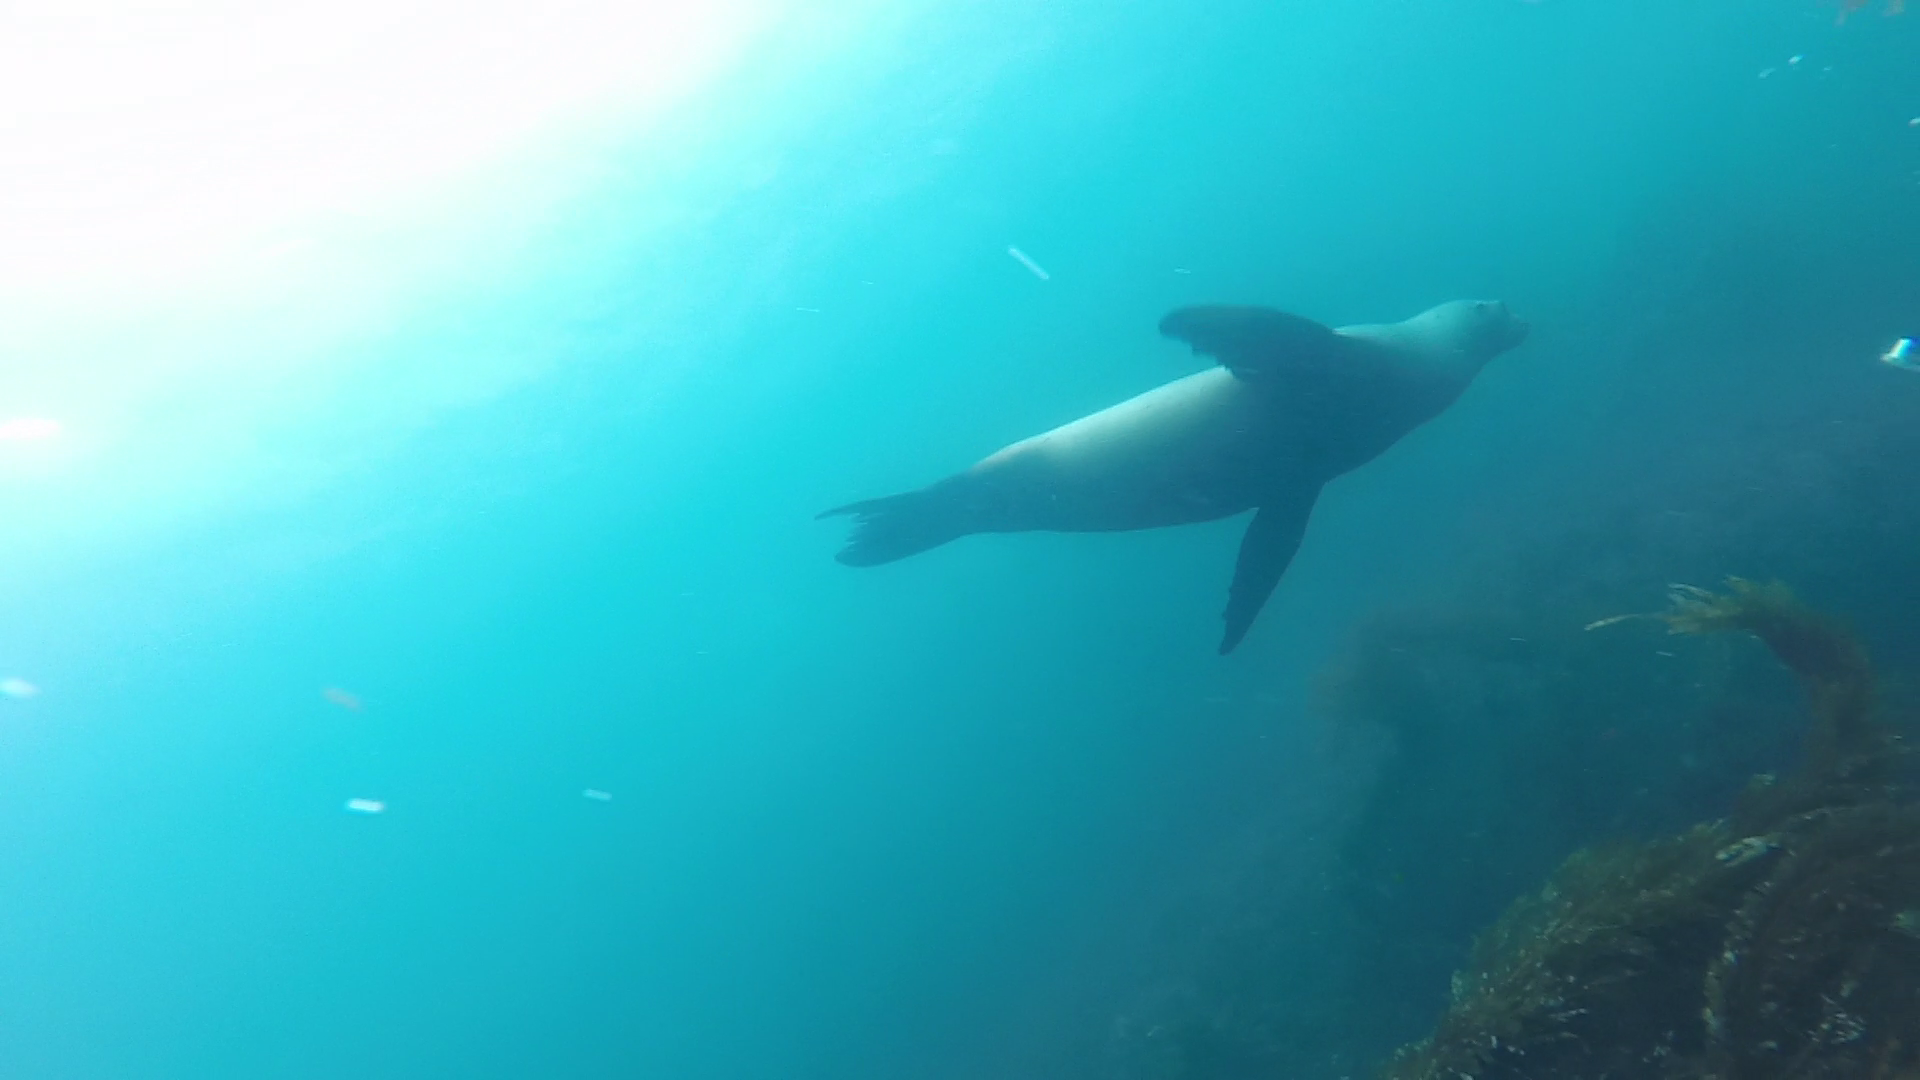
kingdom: Animalia
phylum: Chordata
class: Mammalia
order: Carnivora
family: Otariidae
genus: Zalophus
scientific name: Zalophus californianus
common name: California sea lion
